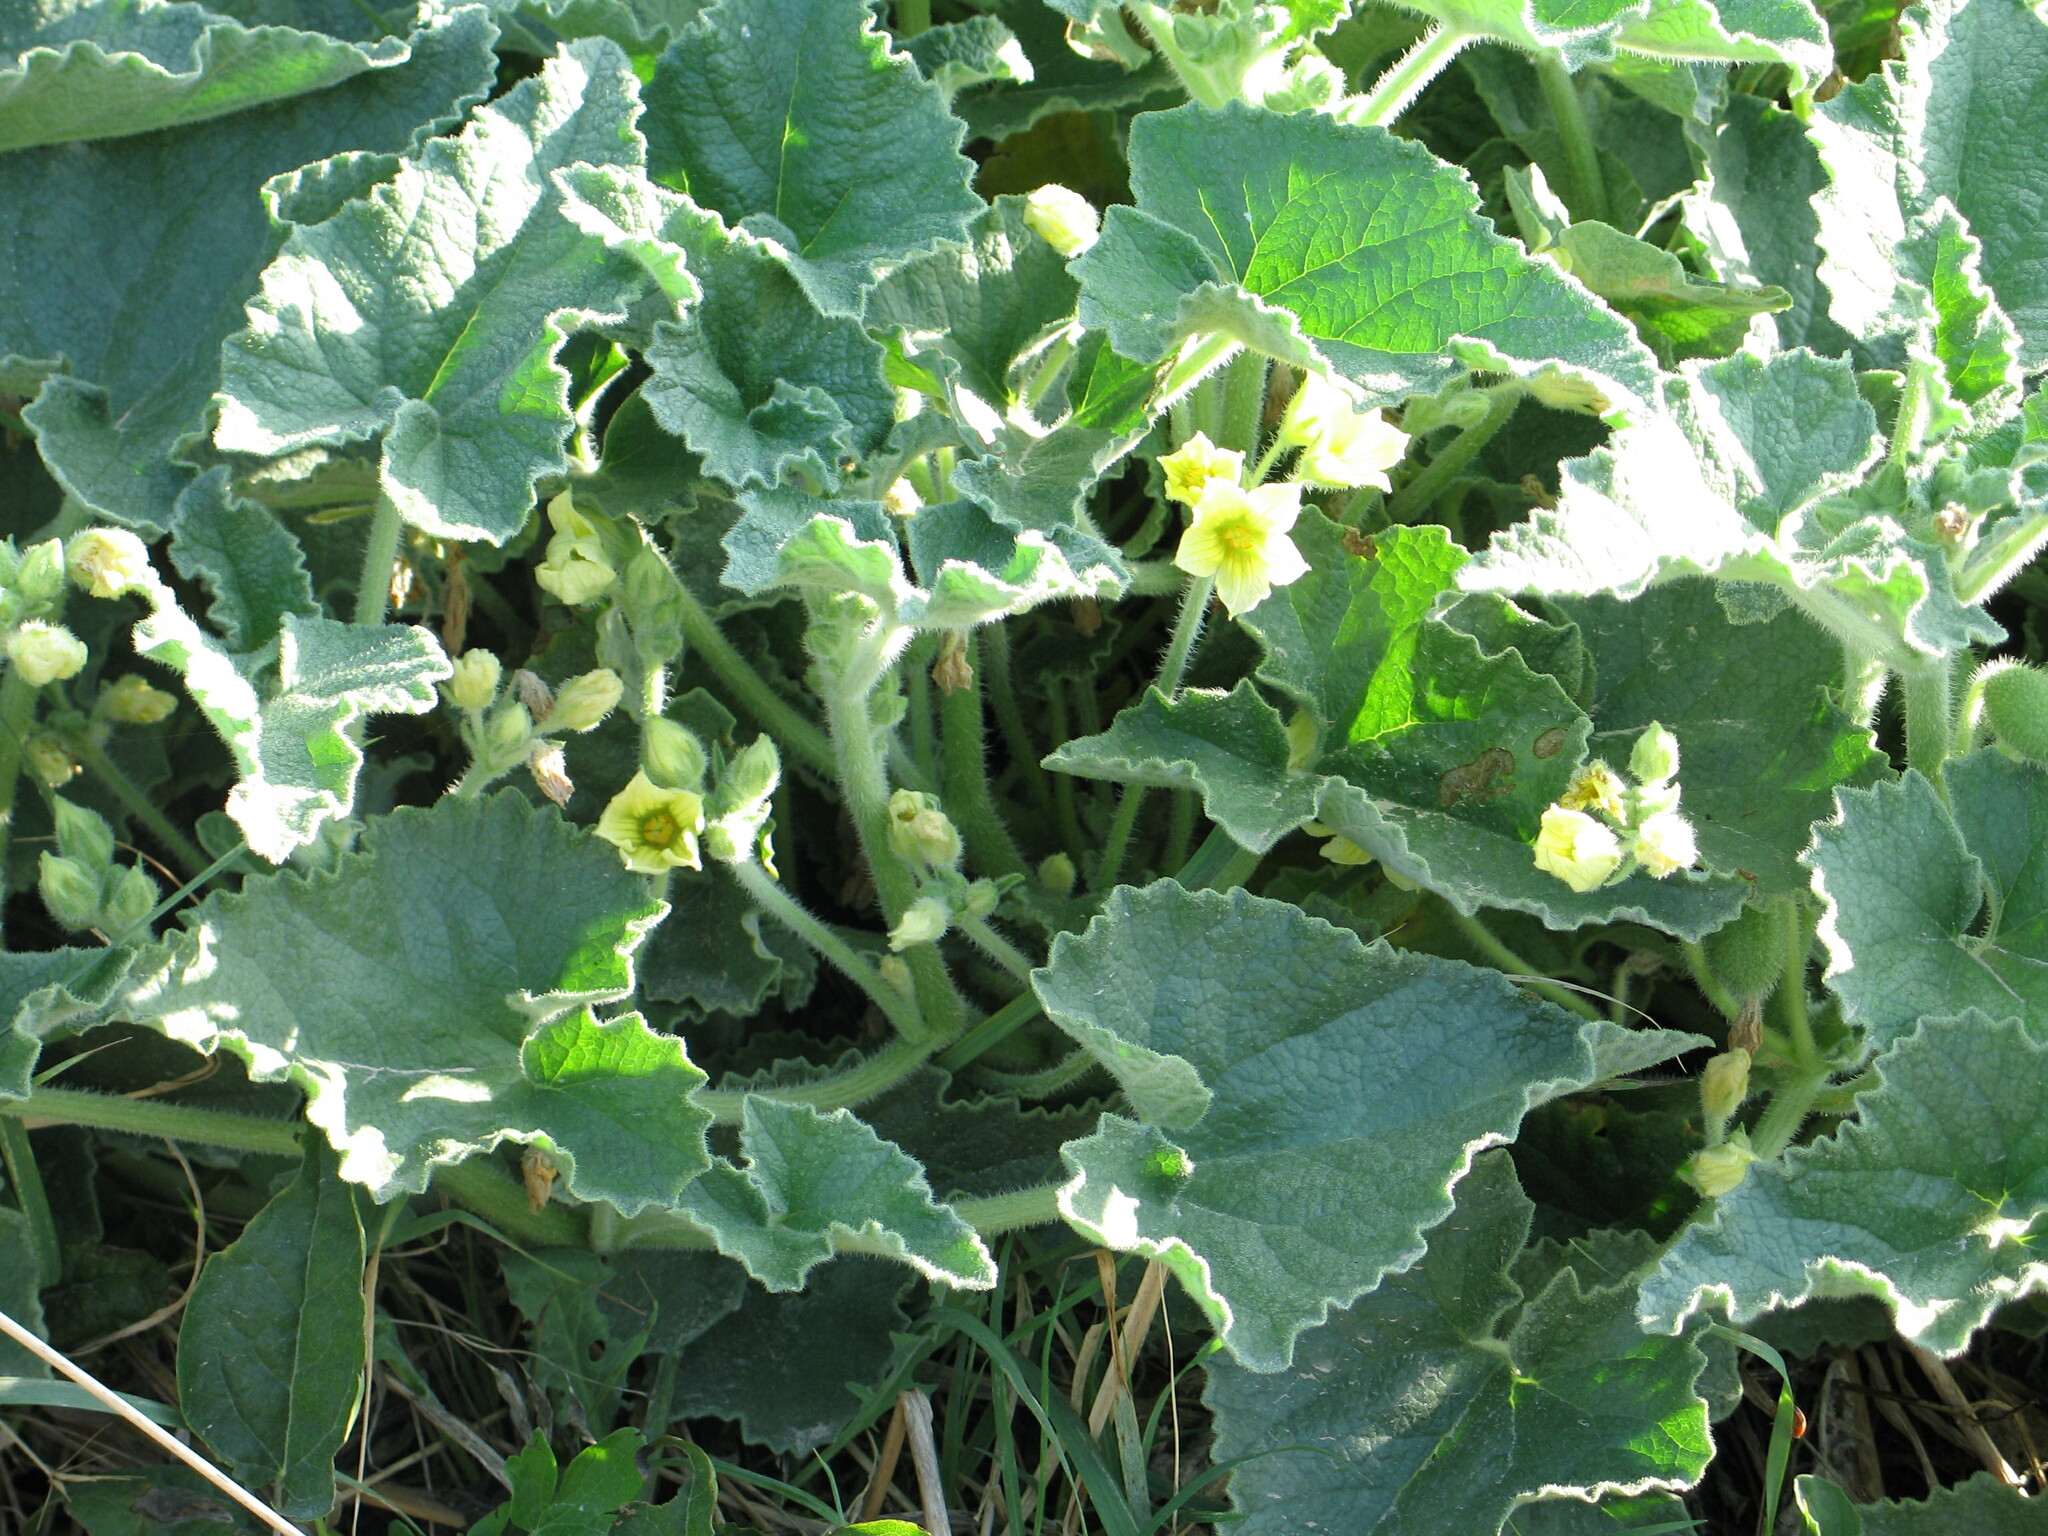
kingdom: Plantae
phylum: Tracheophyta
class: Magnoliopsida
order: Cucurbitales
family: Cucurbitaceae
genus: Ecballium
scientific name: Ecballium elaterium
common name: Squirting cucumber
